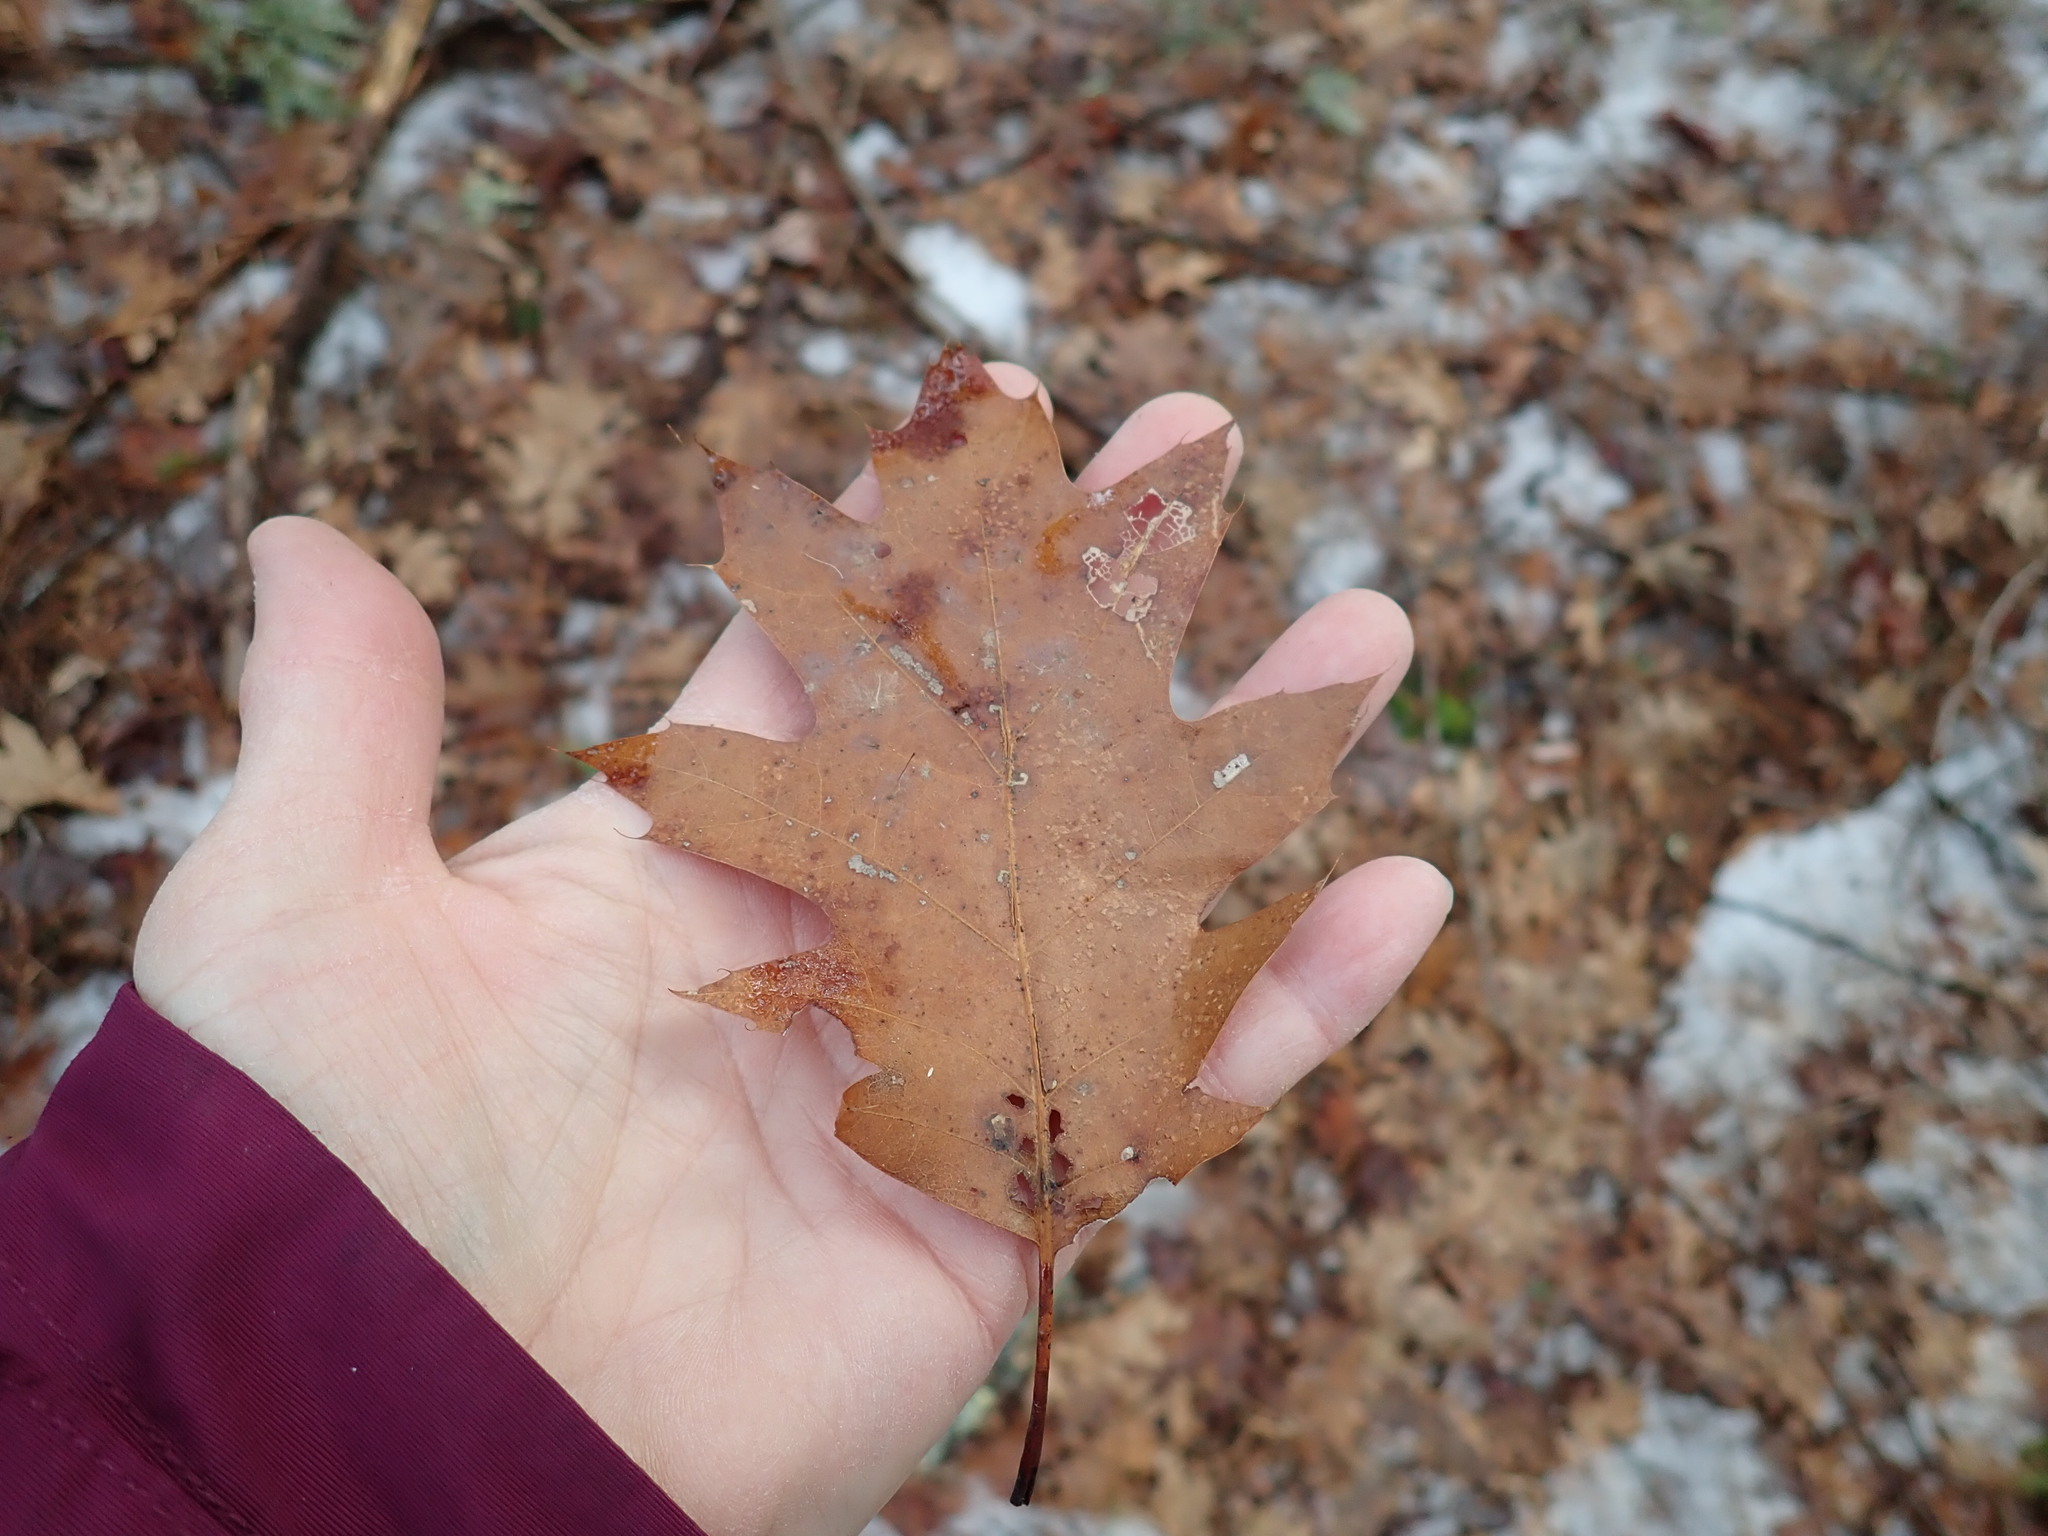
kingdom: Plantae
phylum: Tracheophyta
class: Magnoliopsida
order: Fagales
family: Fagaceae
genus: Quercus
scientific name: Quercus rubra
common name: Red oak
